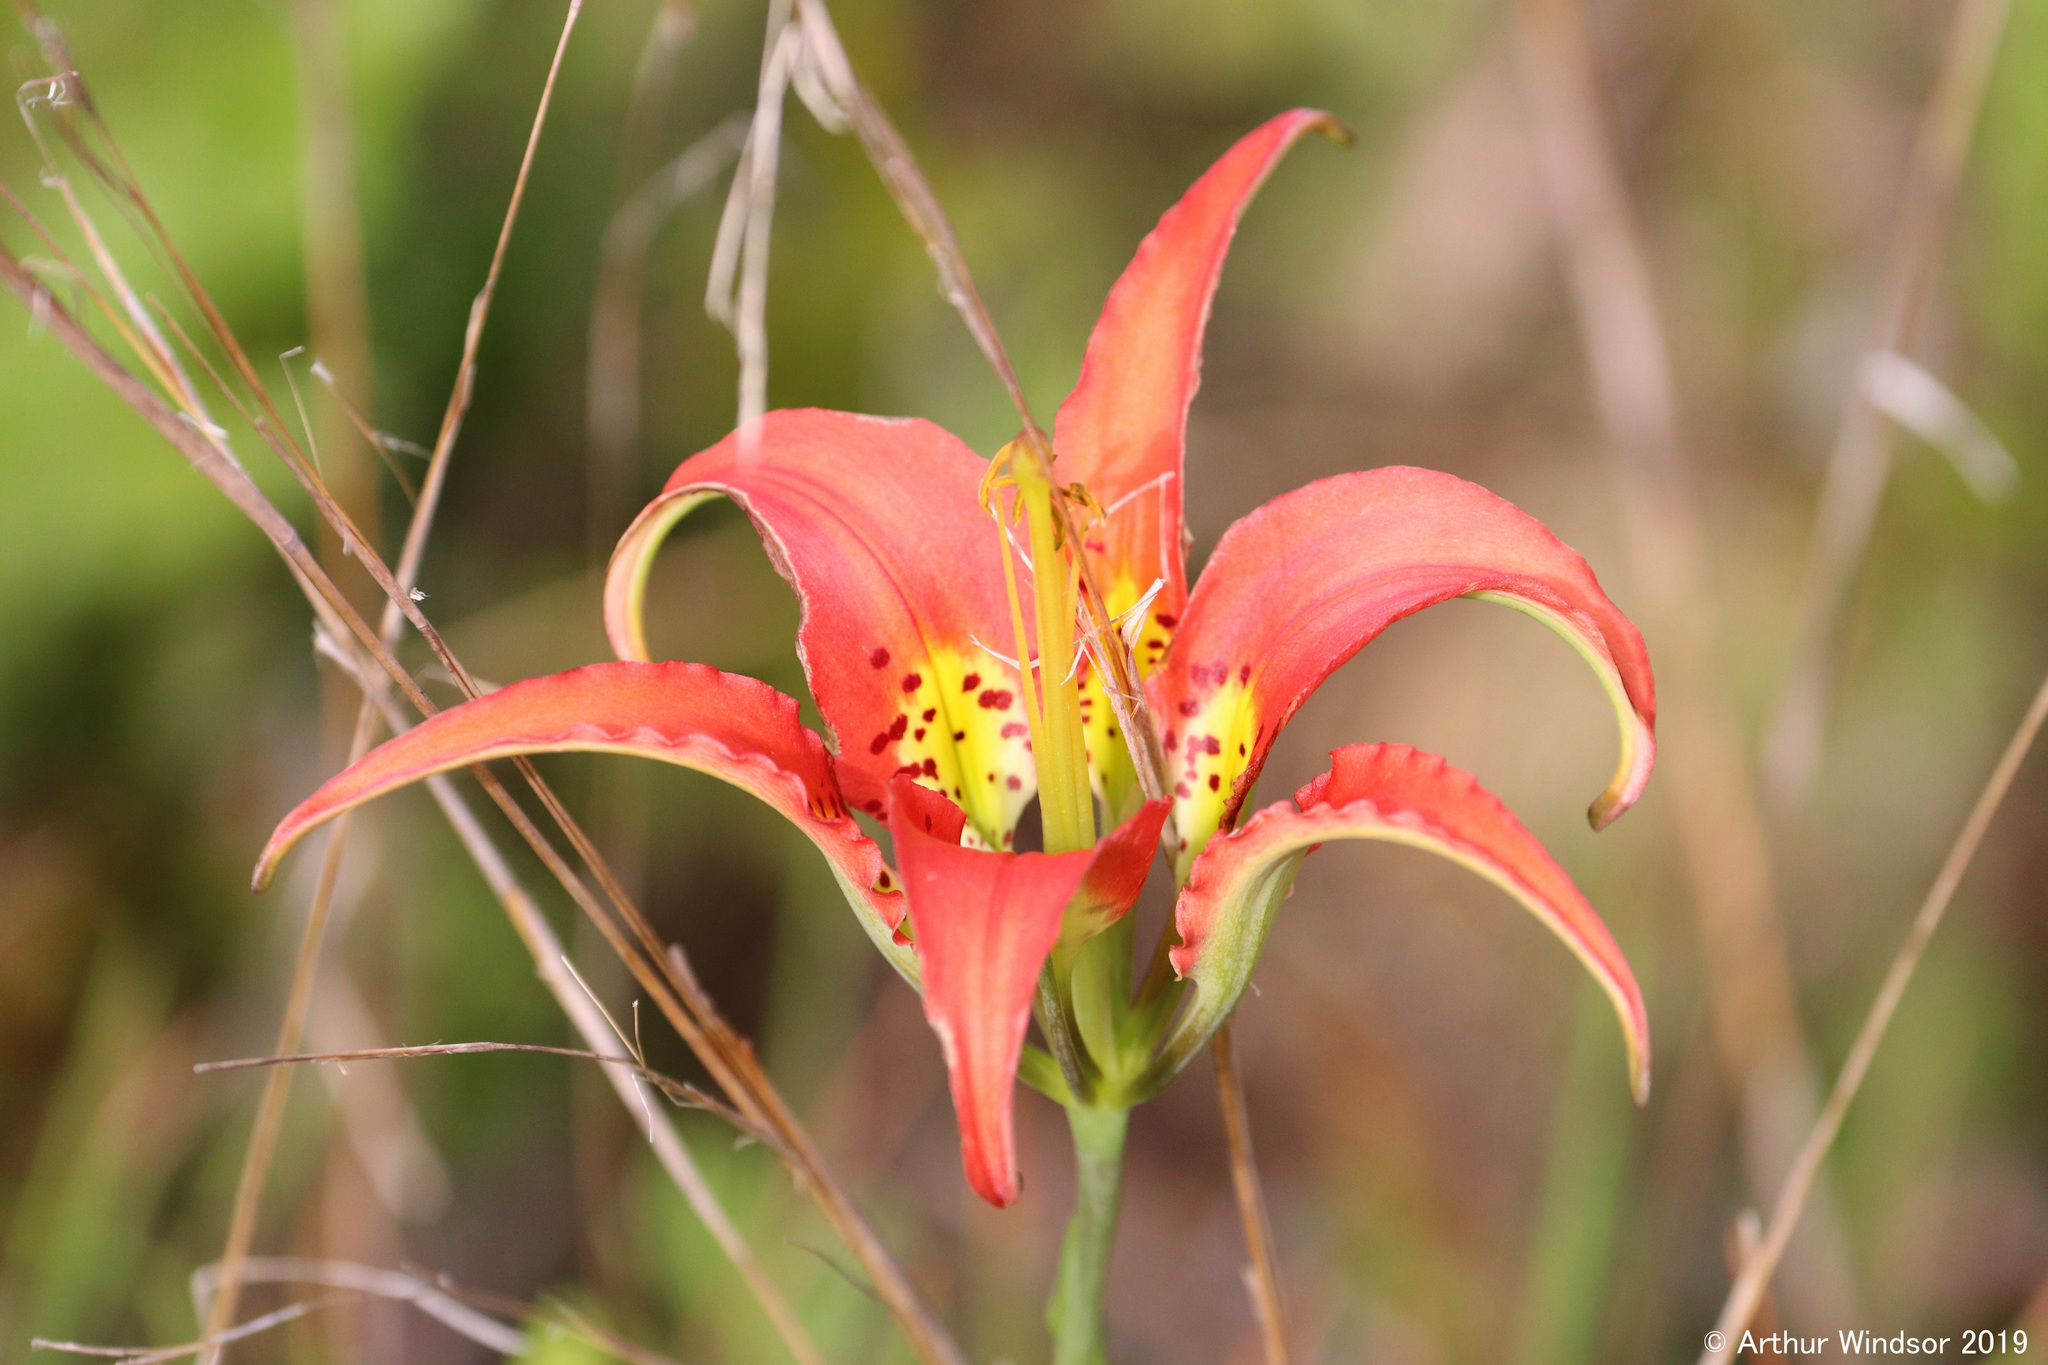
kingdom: Plantae
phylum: Tracheophyta
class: Liliopsida
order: Liliales
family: Liliaceae
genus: Lilium
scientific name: Lilium catesbaei
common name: Catesby's lily
